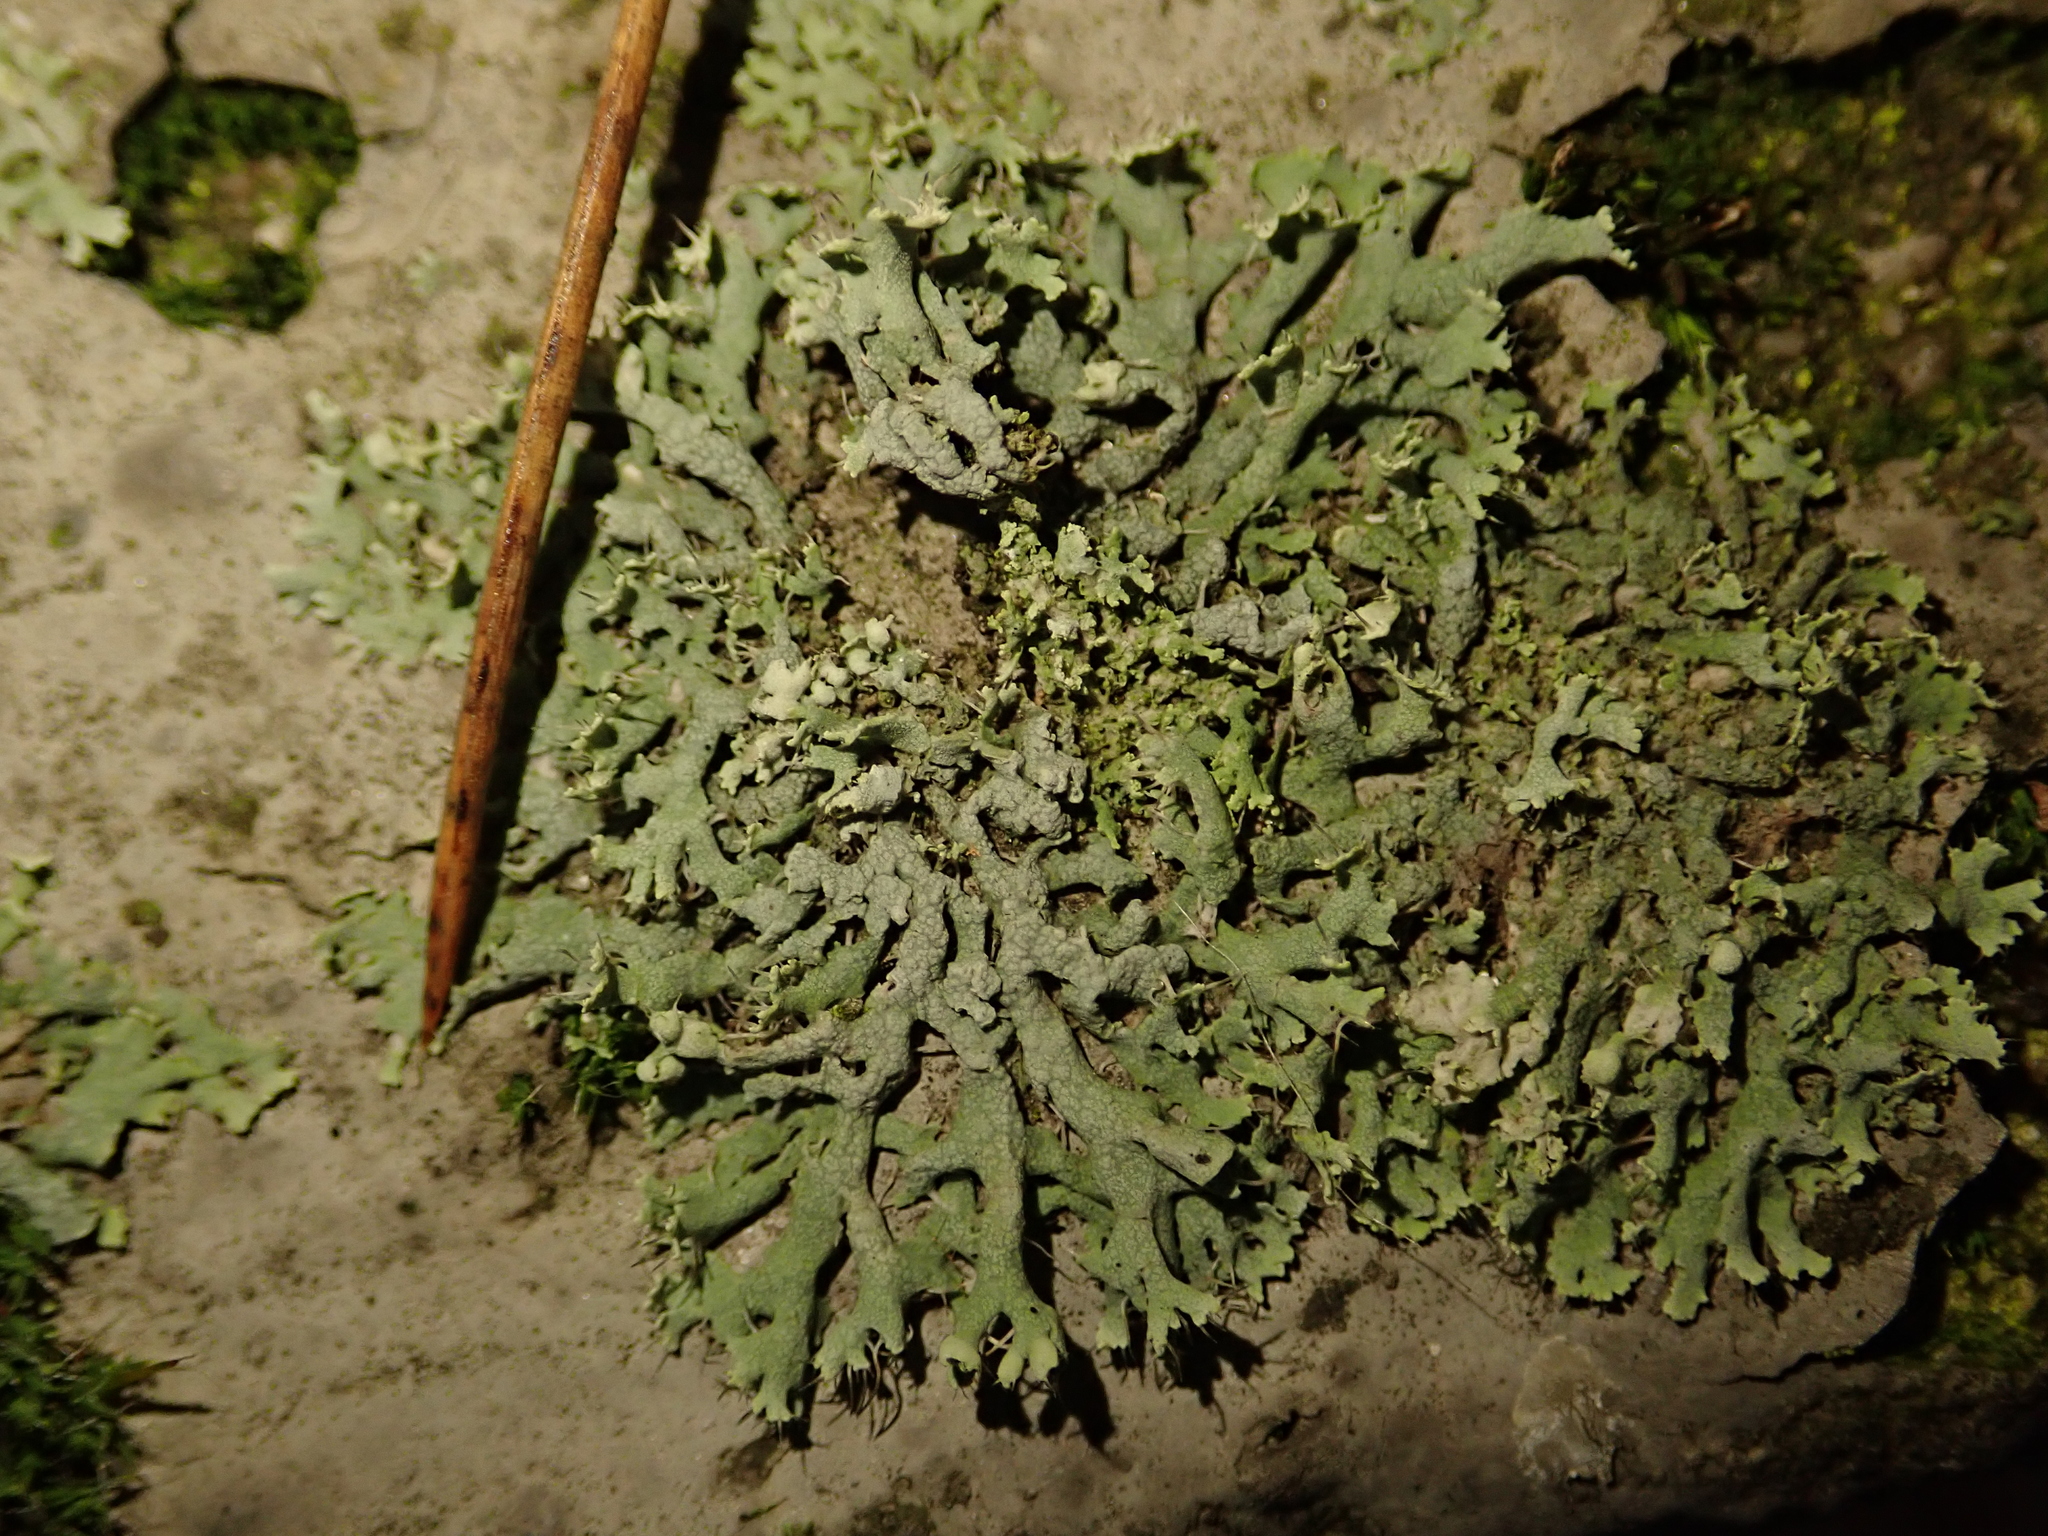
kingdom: Fungi
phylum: Ascomycota
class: Lecanoromycetes
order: Caliciales
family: Physciaceae
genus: Physcia
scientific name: Physcia adscendens
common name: Hooded rosette lichen
